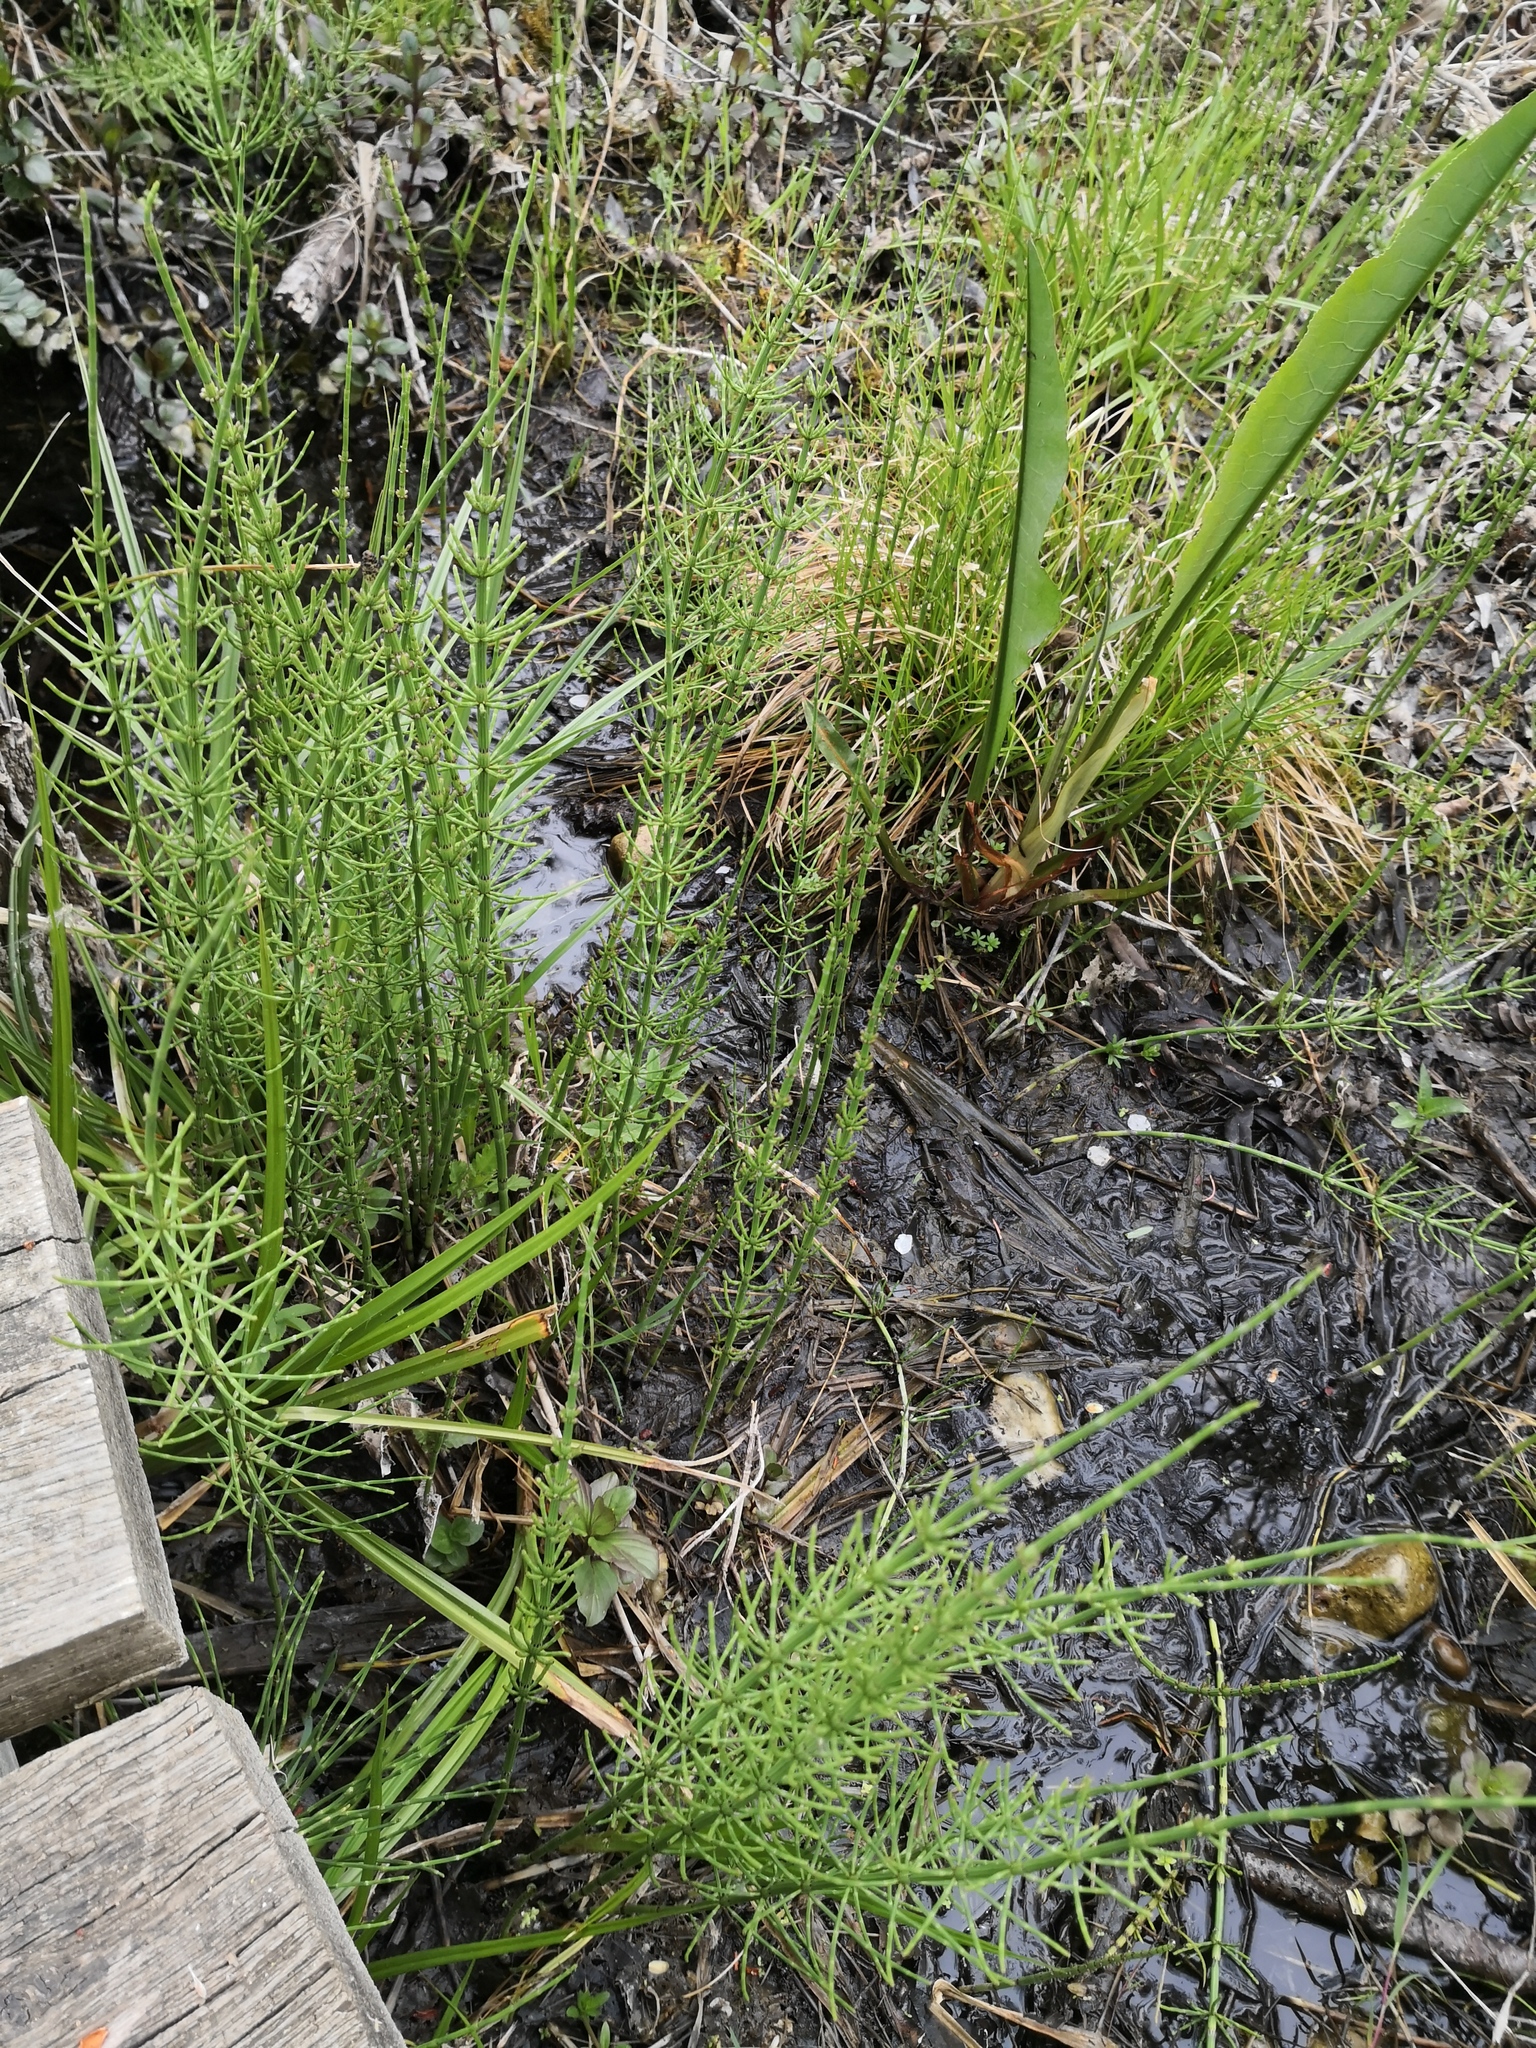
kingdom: Plantae
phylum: Tracheophyta
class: Polypodiopsida
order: Equisetales
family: Equisetaceae
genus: Equisetum
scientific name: Equisetum palustre
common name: Marsh horsetail
